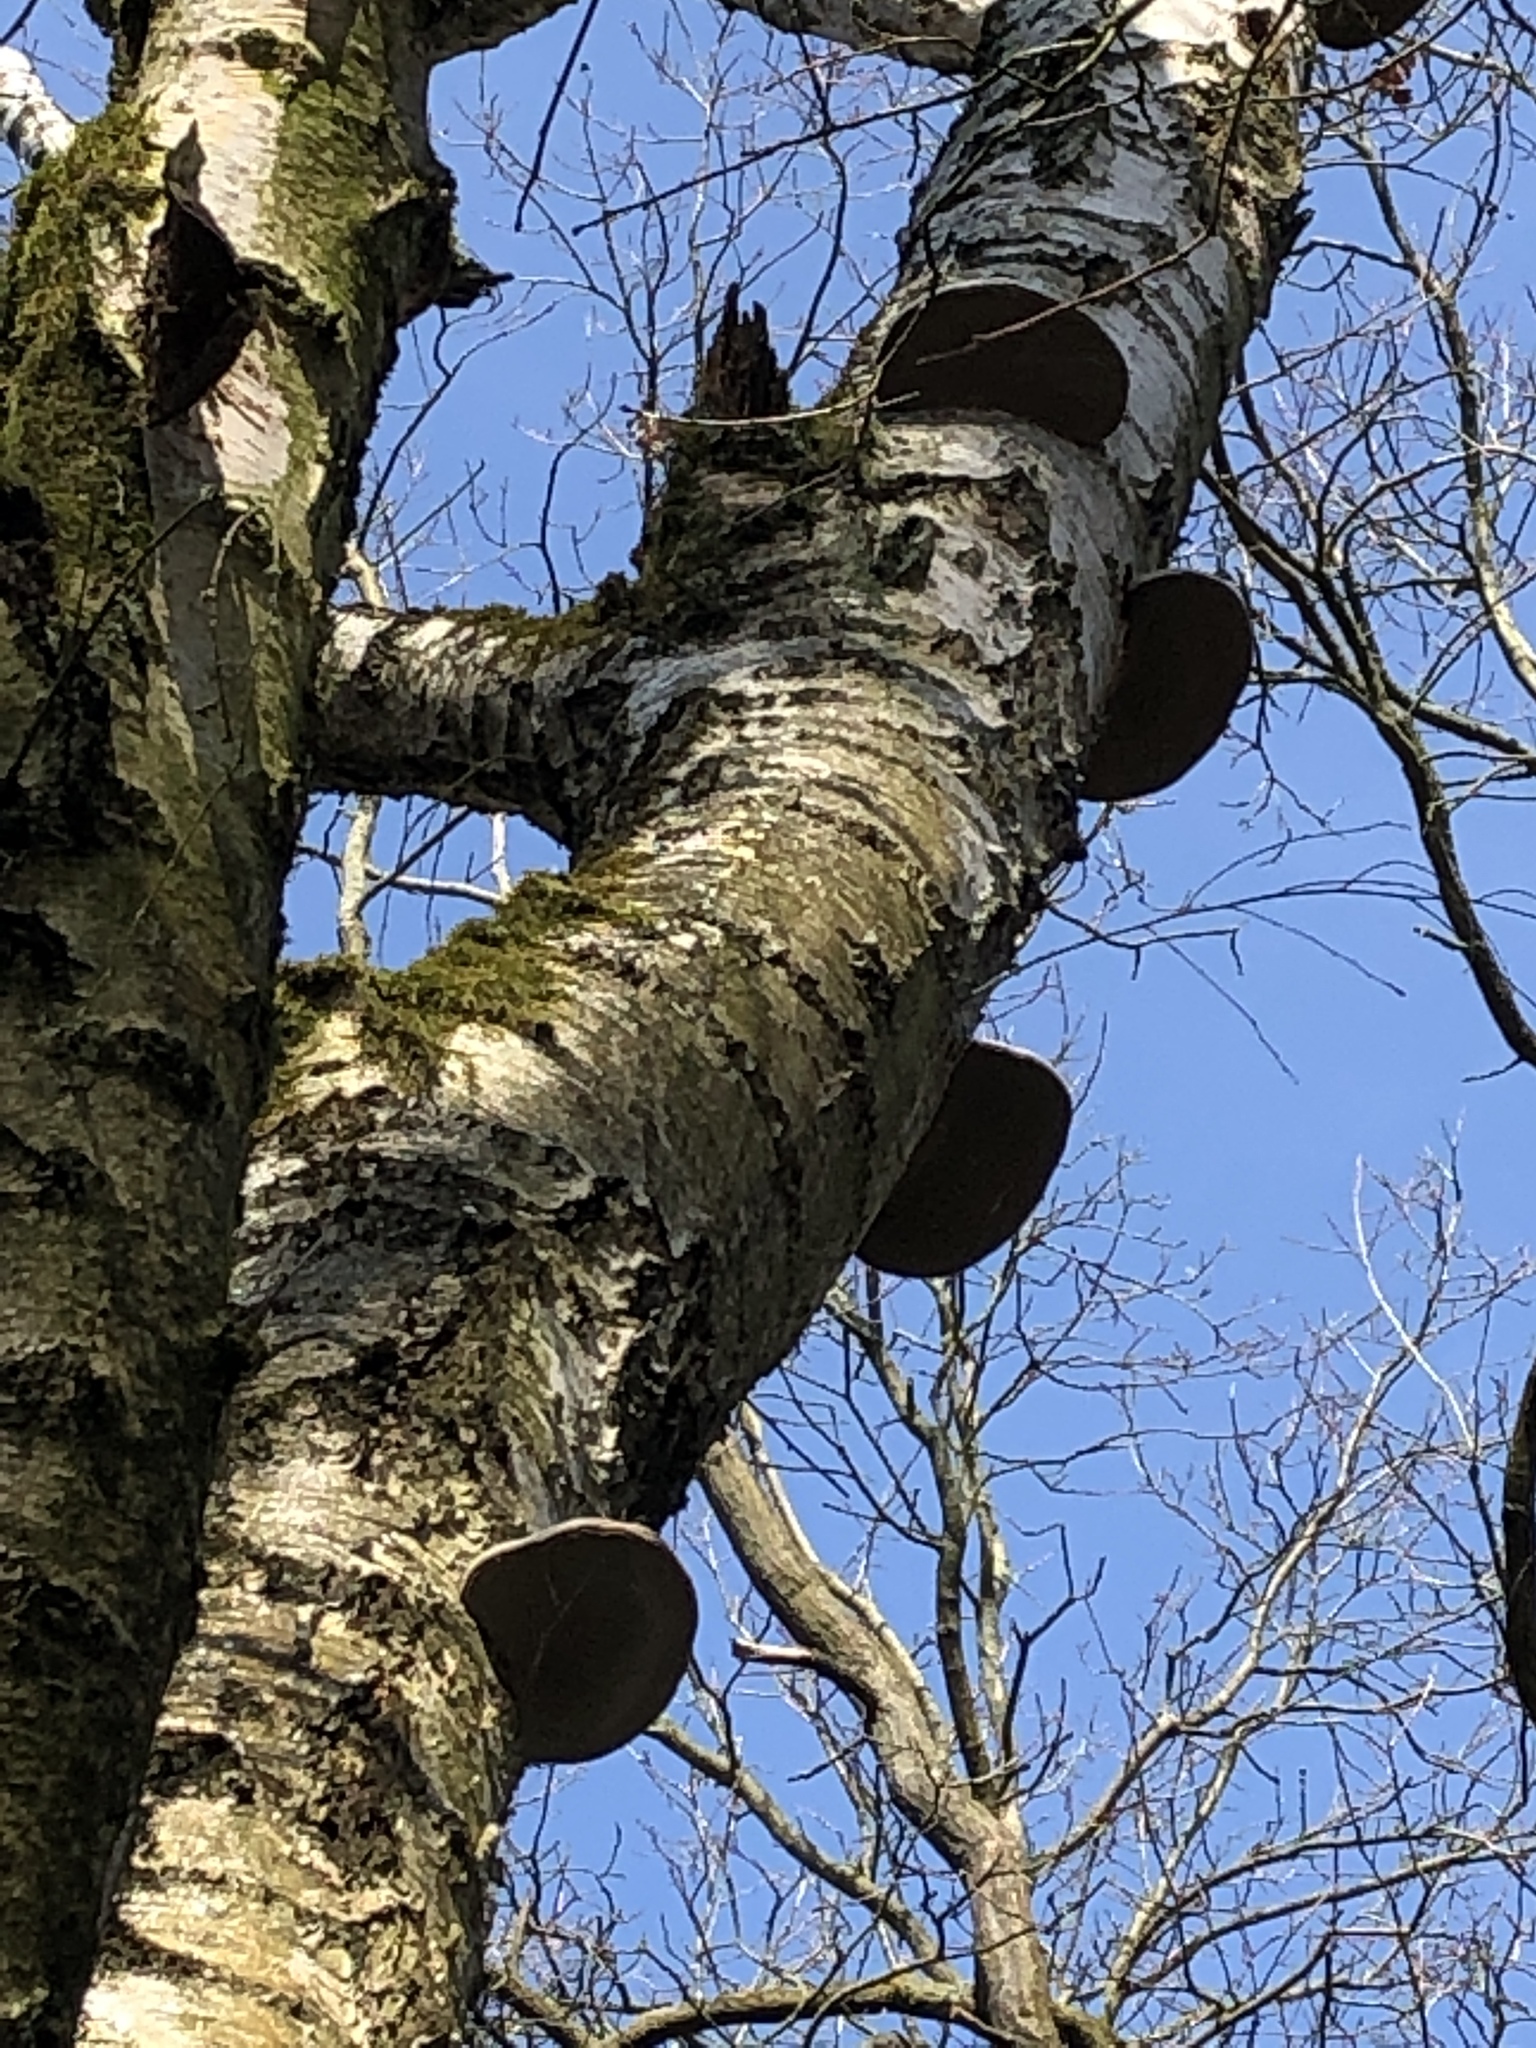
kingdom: Fungi
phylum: Basidiomycota
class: Agaricomycetes
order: Polyporales
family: Fomitopsidaceae
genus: Fomitopsis
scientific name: Fomitopsis betulina
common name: Birch polypore
